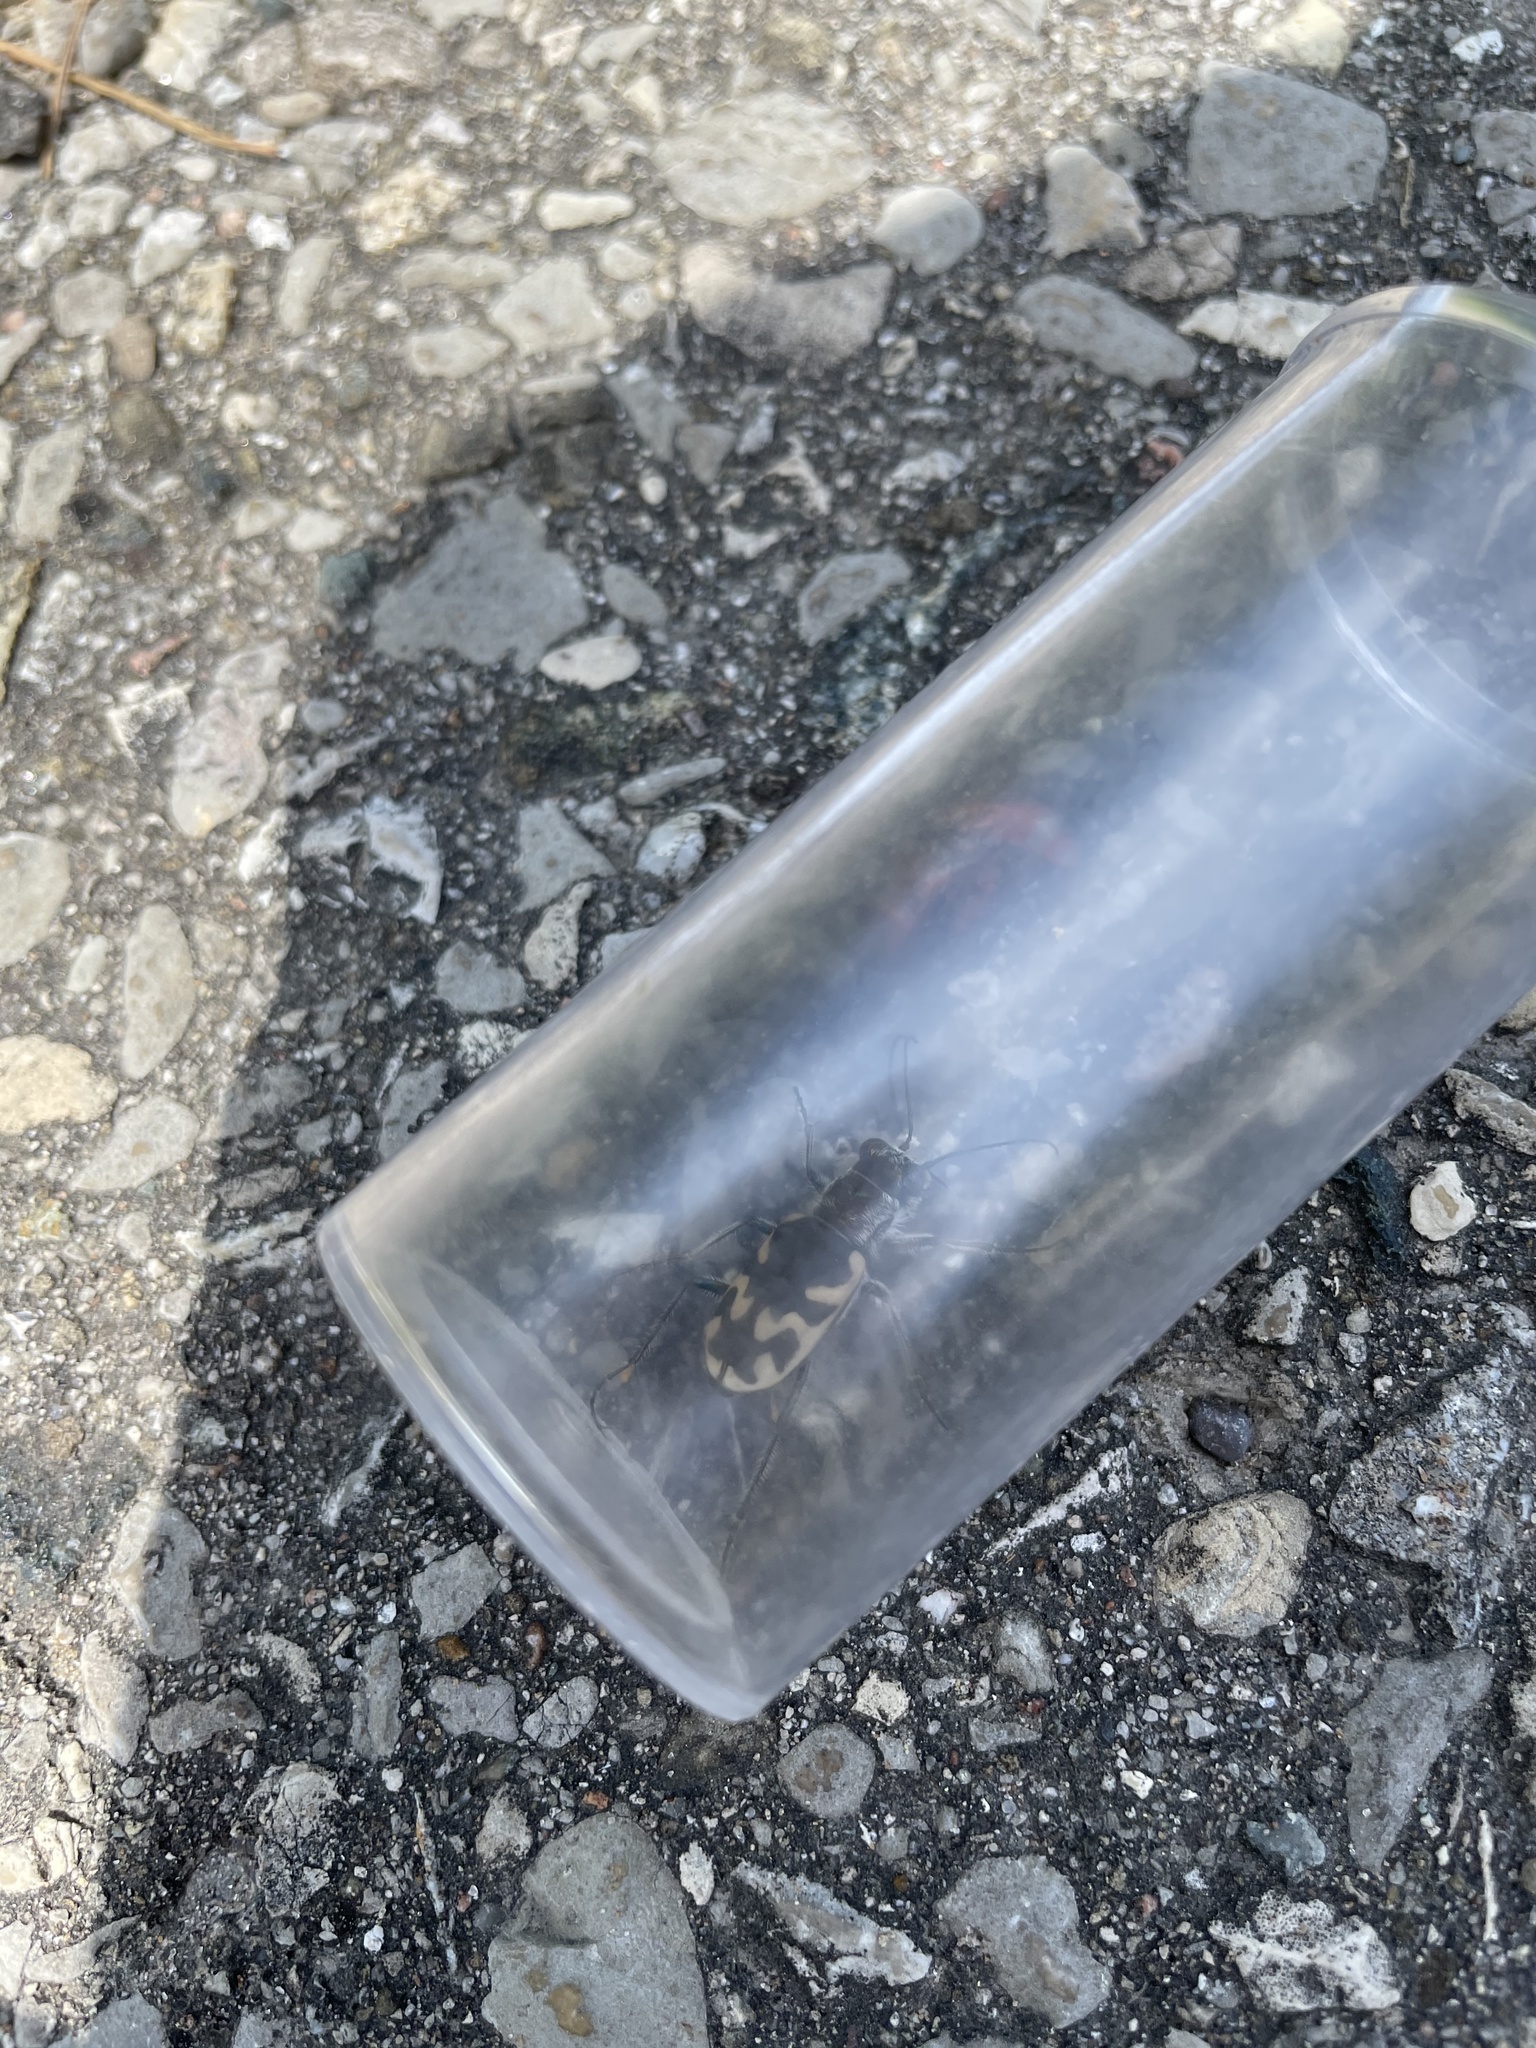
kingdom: Animalia
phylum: Arthropoda
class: Insecta
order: Coleoptera
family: Carabidae
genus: Cicindela
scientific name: Cicindela formosa
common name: Big sand tiger beetle
